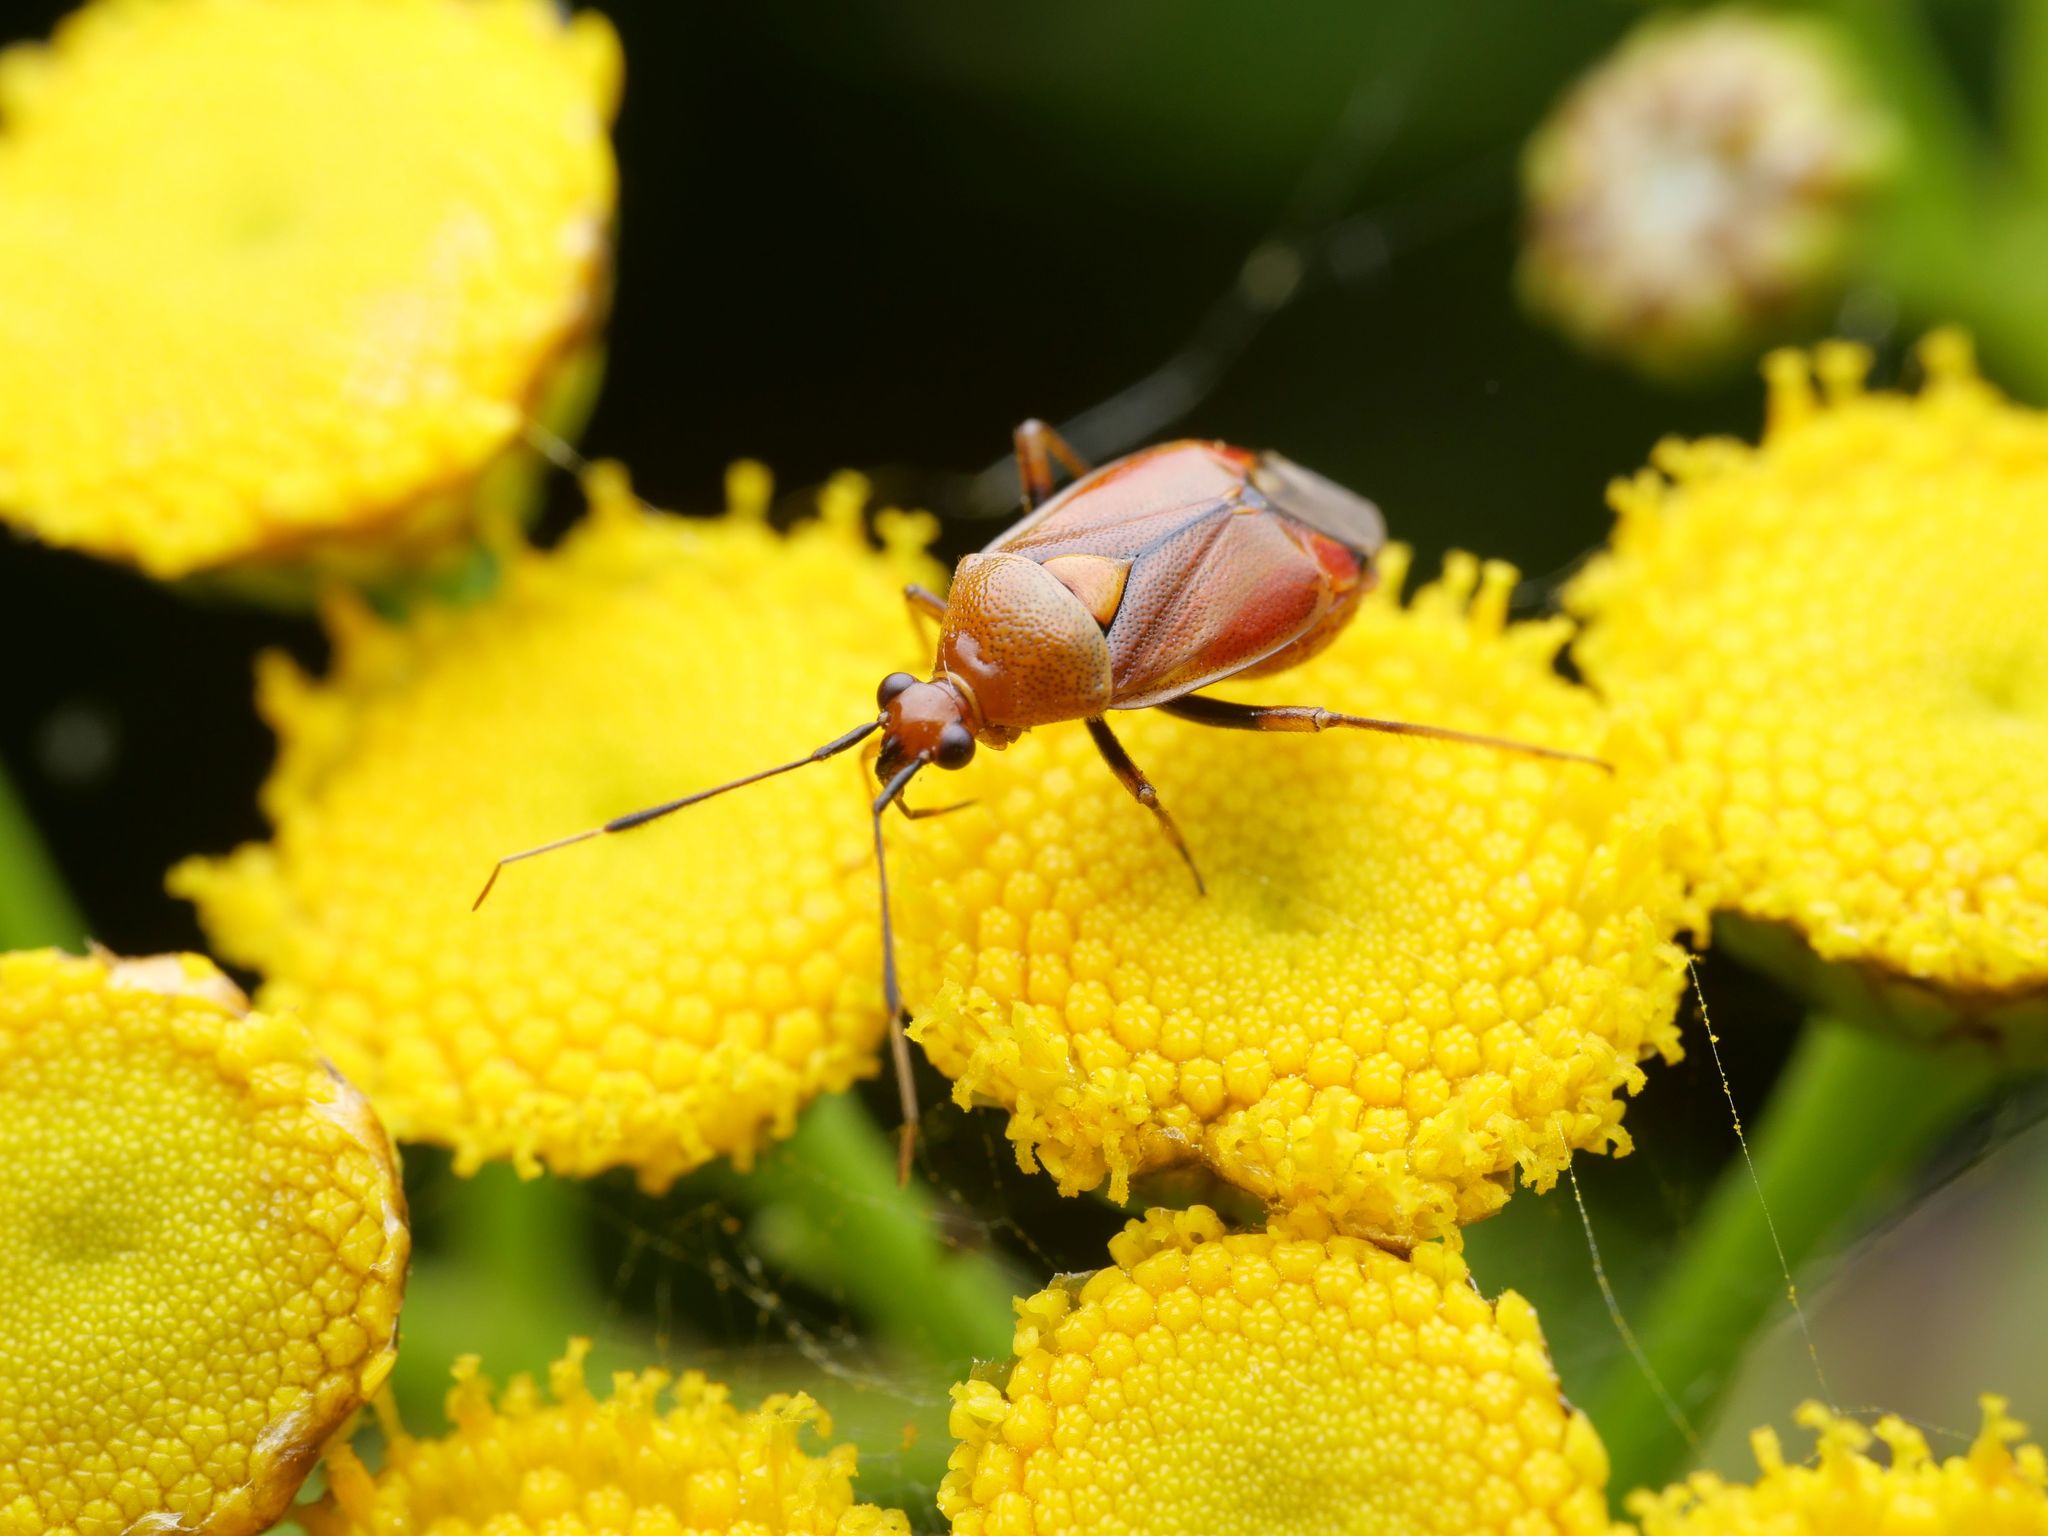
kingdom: Animalia
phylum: Arthropoda
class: Insecta
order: Hemiptera
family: Miridae
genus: Deraeocoris
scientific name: Deraeocoris ruber
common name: Plant bug
